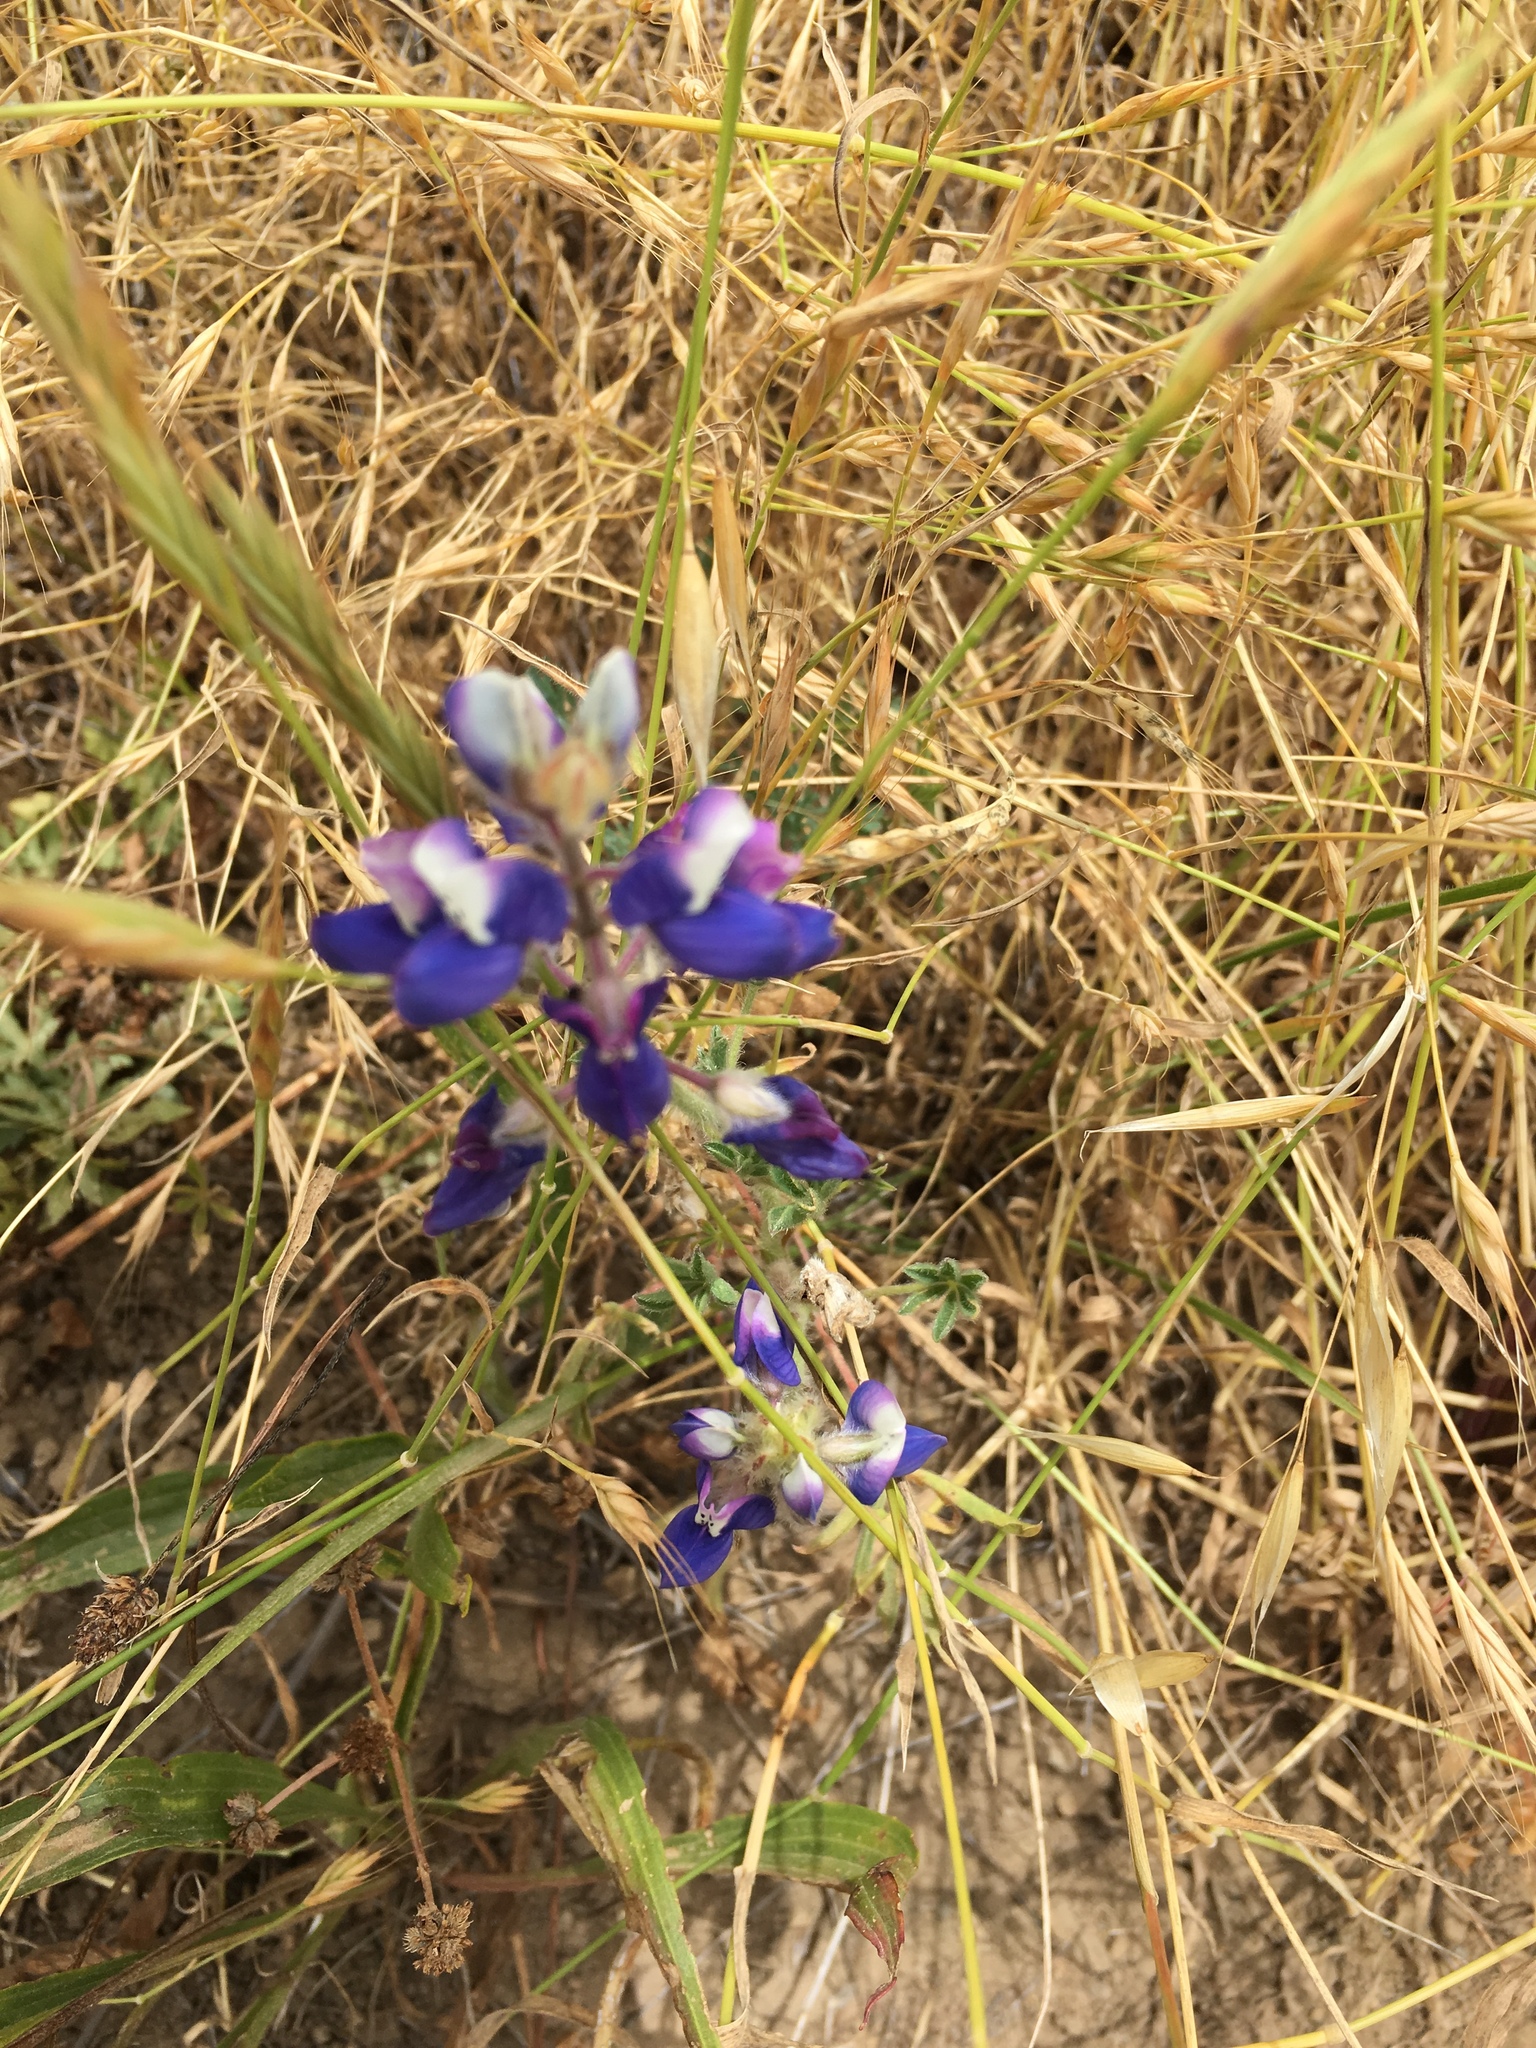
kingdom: Plantae
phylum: Tracheophyta
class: Magnoliopsida
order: Fabales
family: Fabaceae
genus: Lupinus
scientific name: Lupinus nanus
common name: Orean blue lupin
